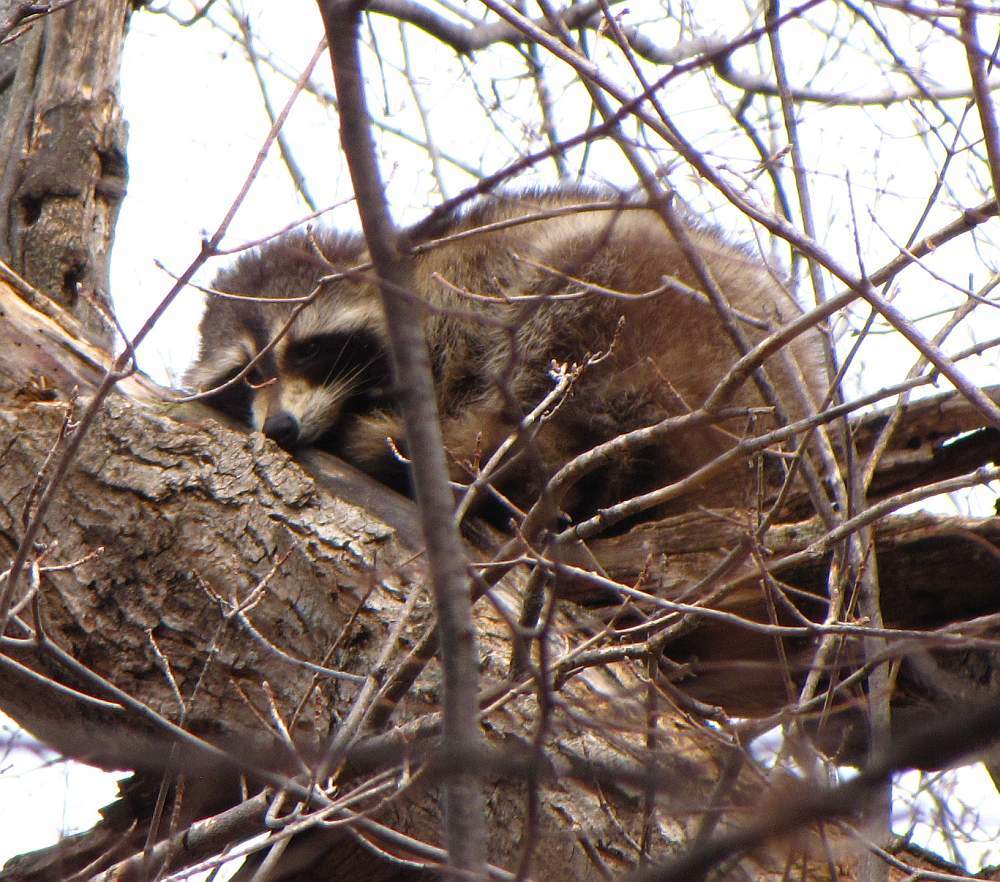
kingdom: Animalia
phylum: Chordata
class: Mammalia
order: Carnivora
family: Procyonidae
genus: Procyon
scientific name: Procyon lotor
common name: Raccoon
